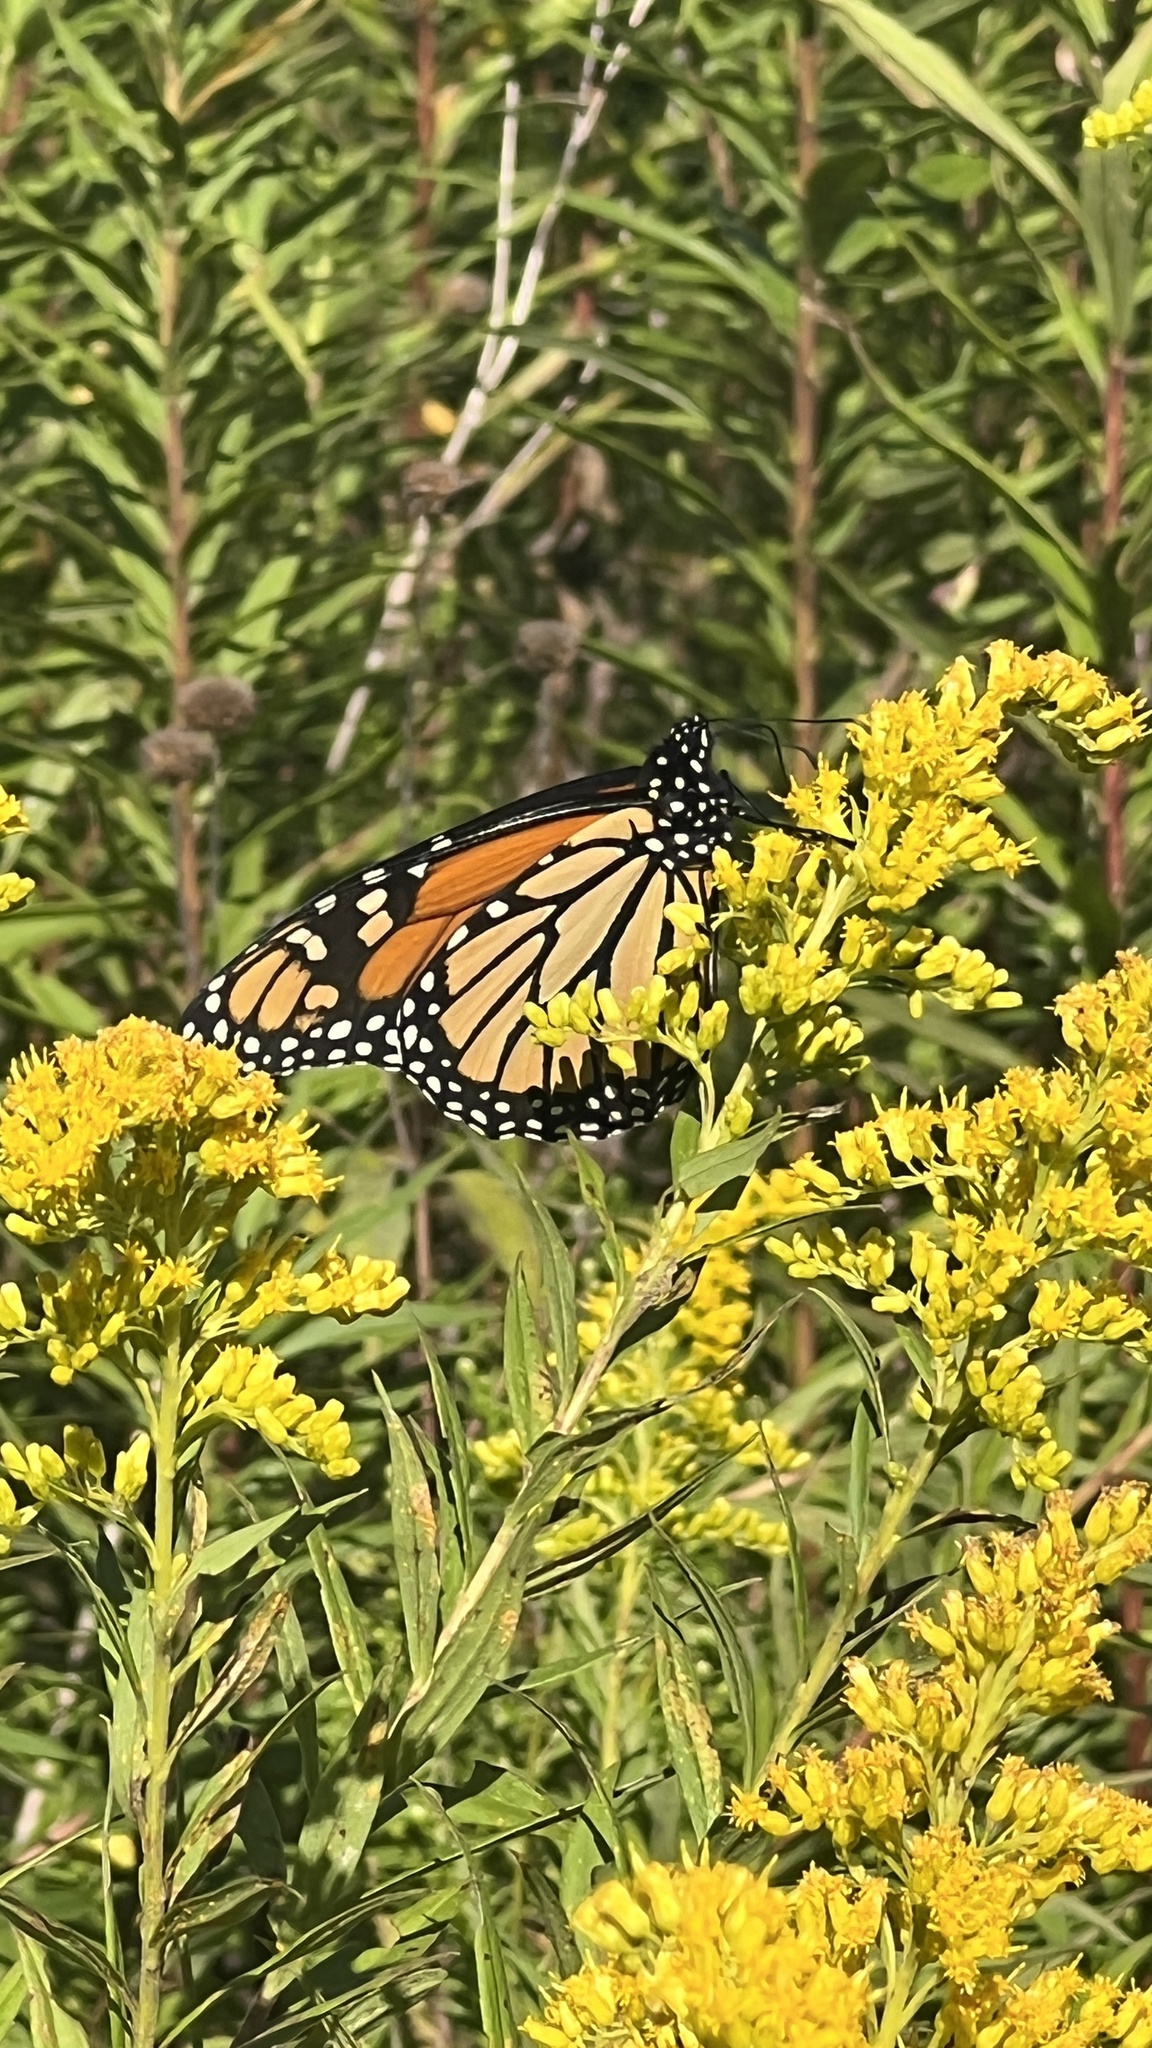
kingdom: Animalia
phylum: Arthropoda
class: Insecta
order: Lepidoptera
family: Nymphalidae
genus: Danaus
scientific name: Danaus plexippus
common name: Monarch
